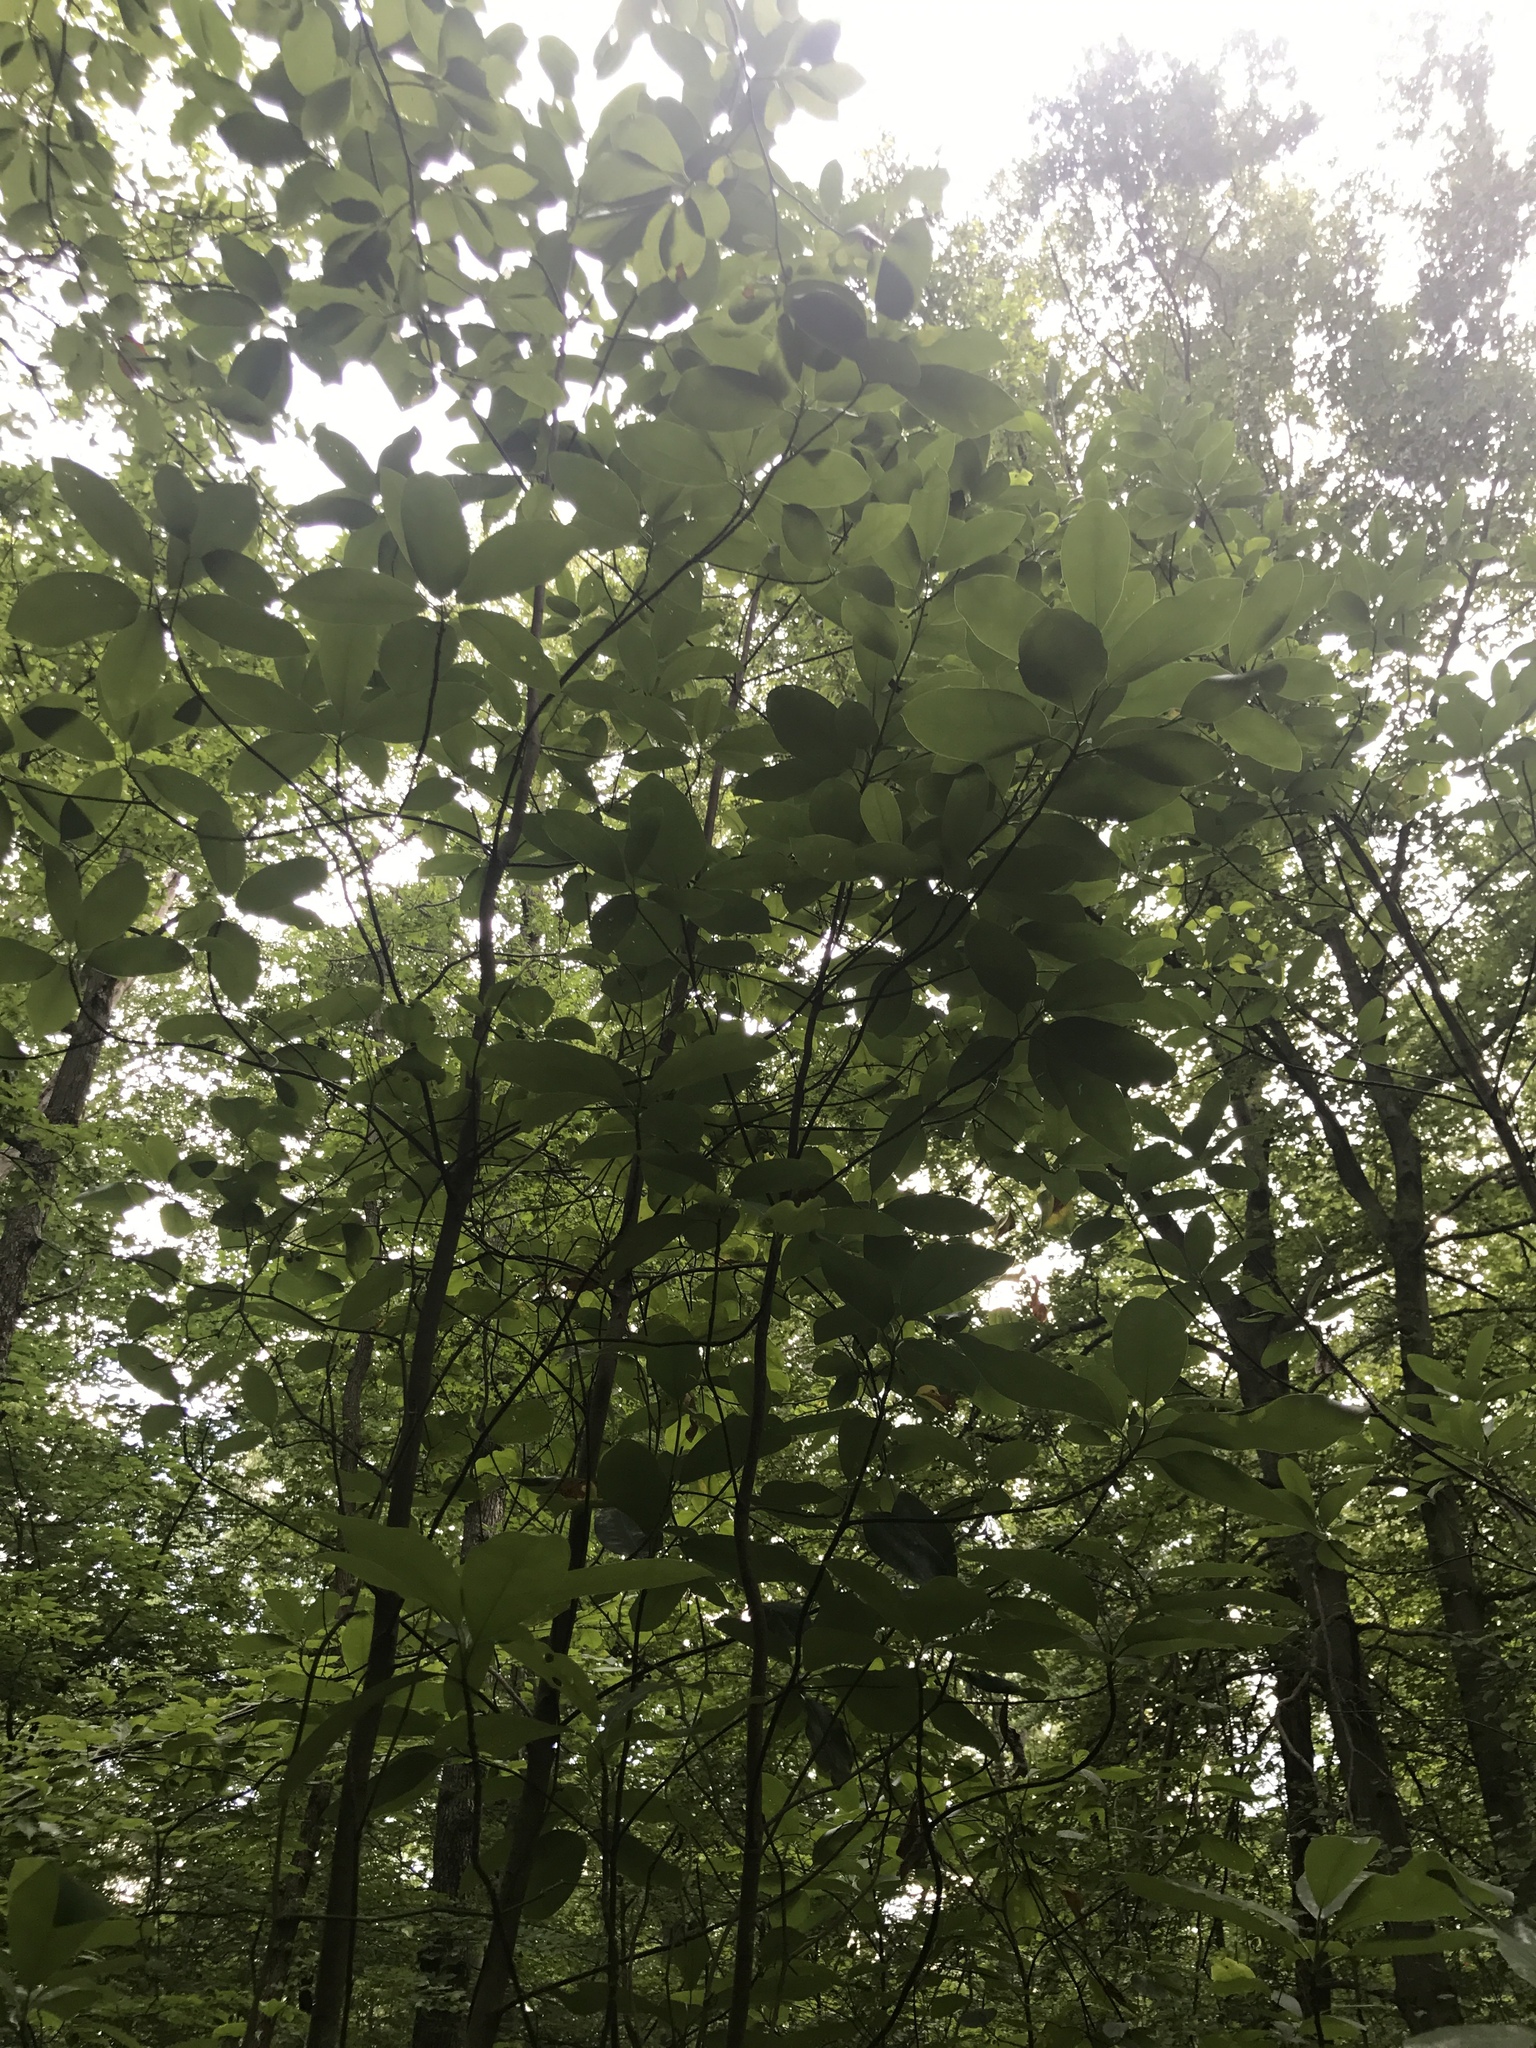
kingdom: Plantae
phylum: Tracheophyta
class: Magnoliopsida
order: Magnoliales
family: Magnoliaceae
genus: Magnolia
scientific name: Magnolia virginiana
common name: Swamp bay
